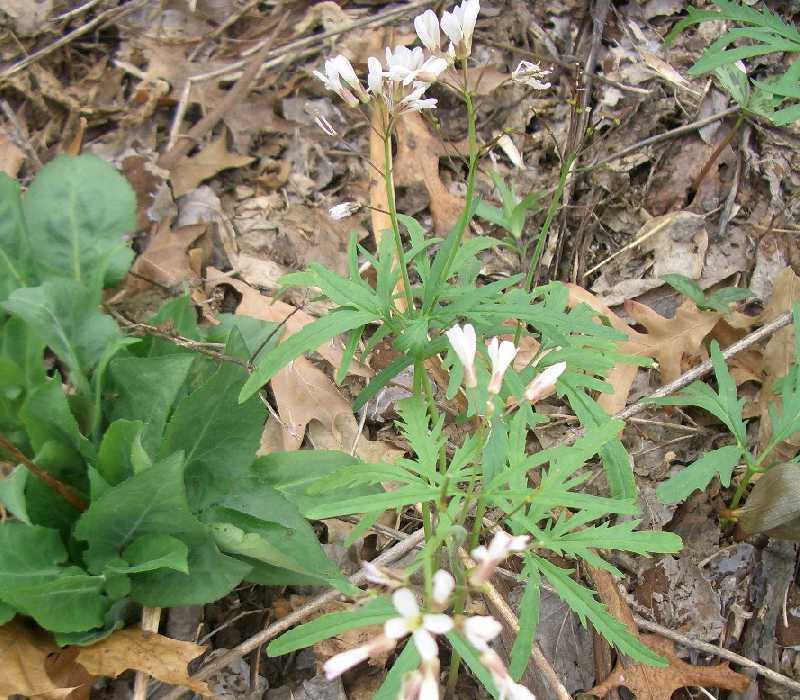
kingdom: Plantae
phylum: Tracheophyta
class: Magnoliopsida
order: Brassicales
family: Brassicaceae
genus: Cardamine
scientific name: Cardamine concatenata
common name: Cut-leaf toothcup
